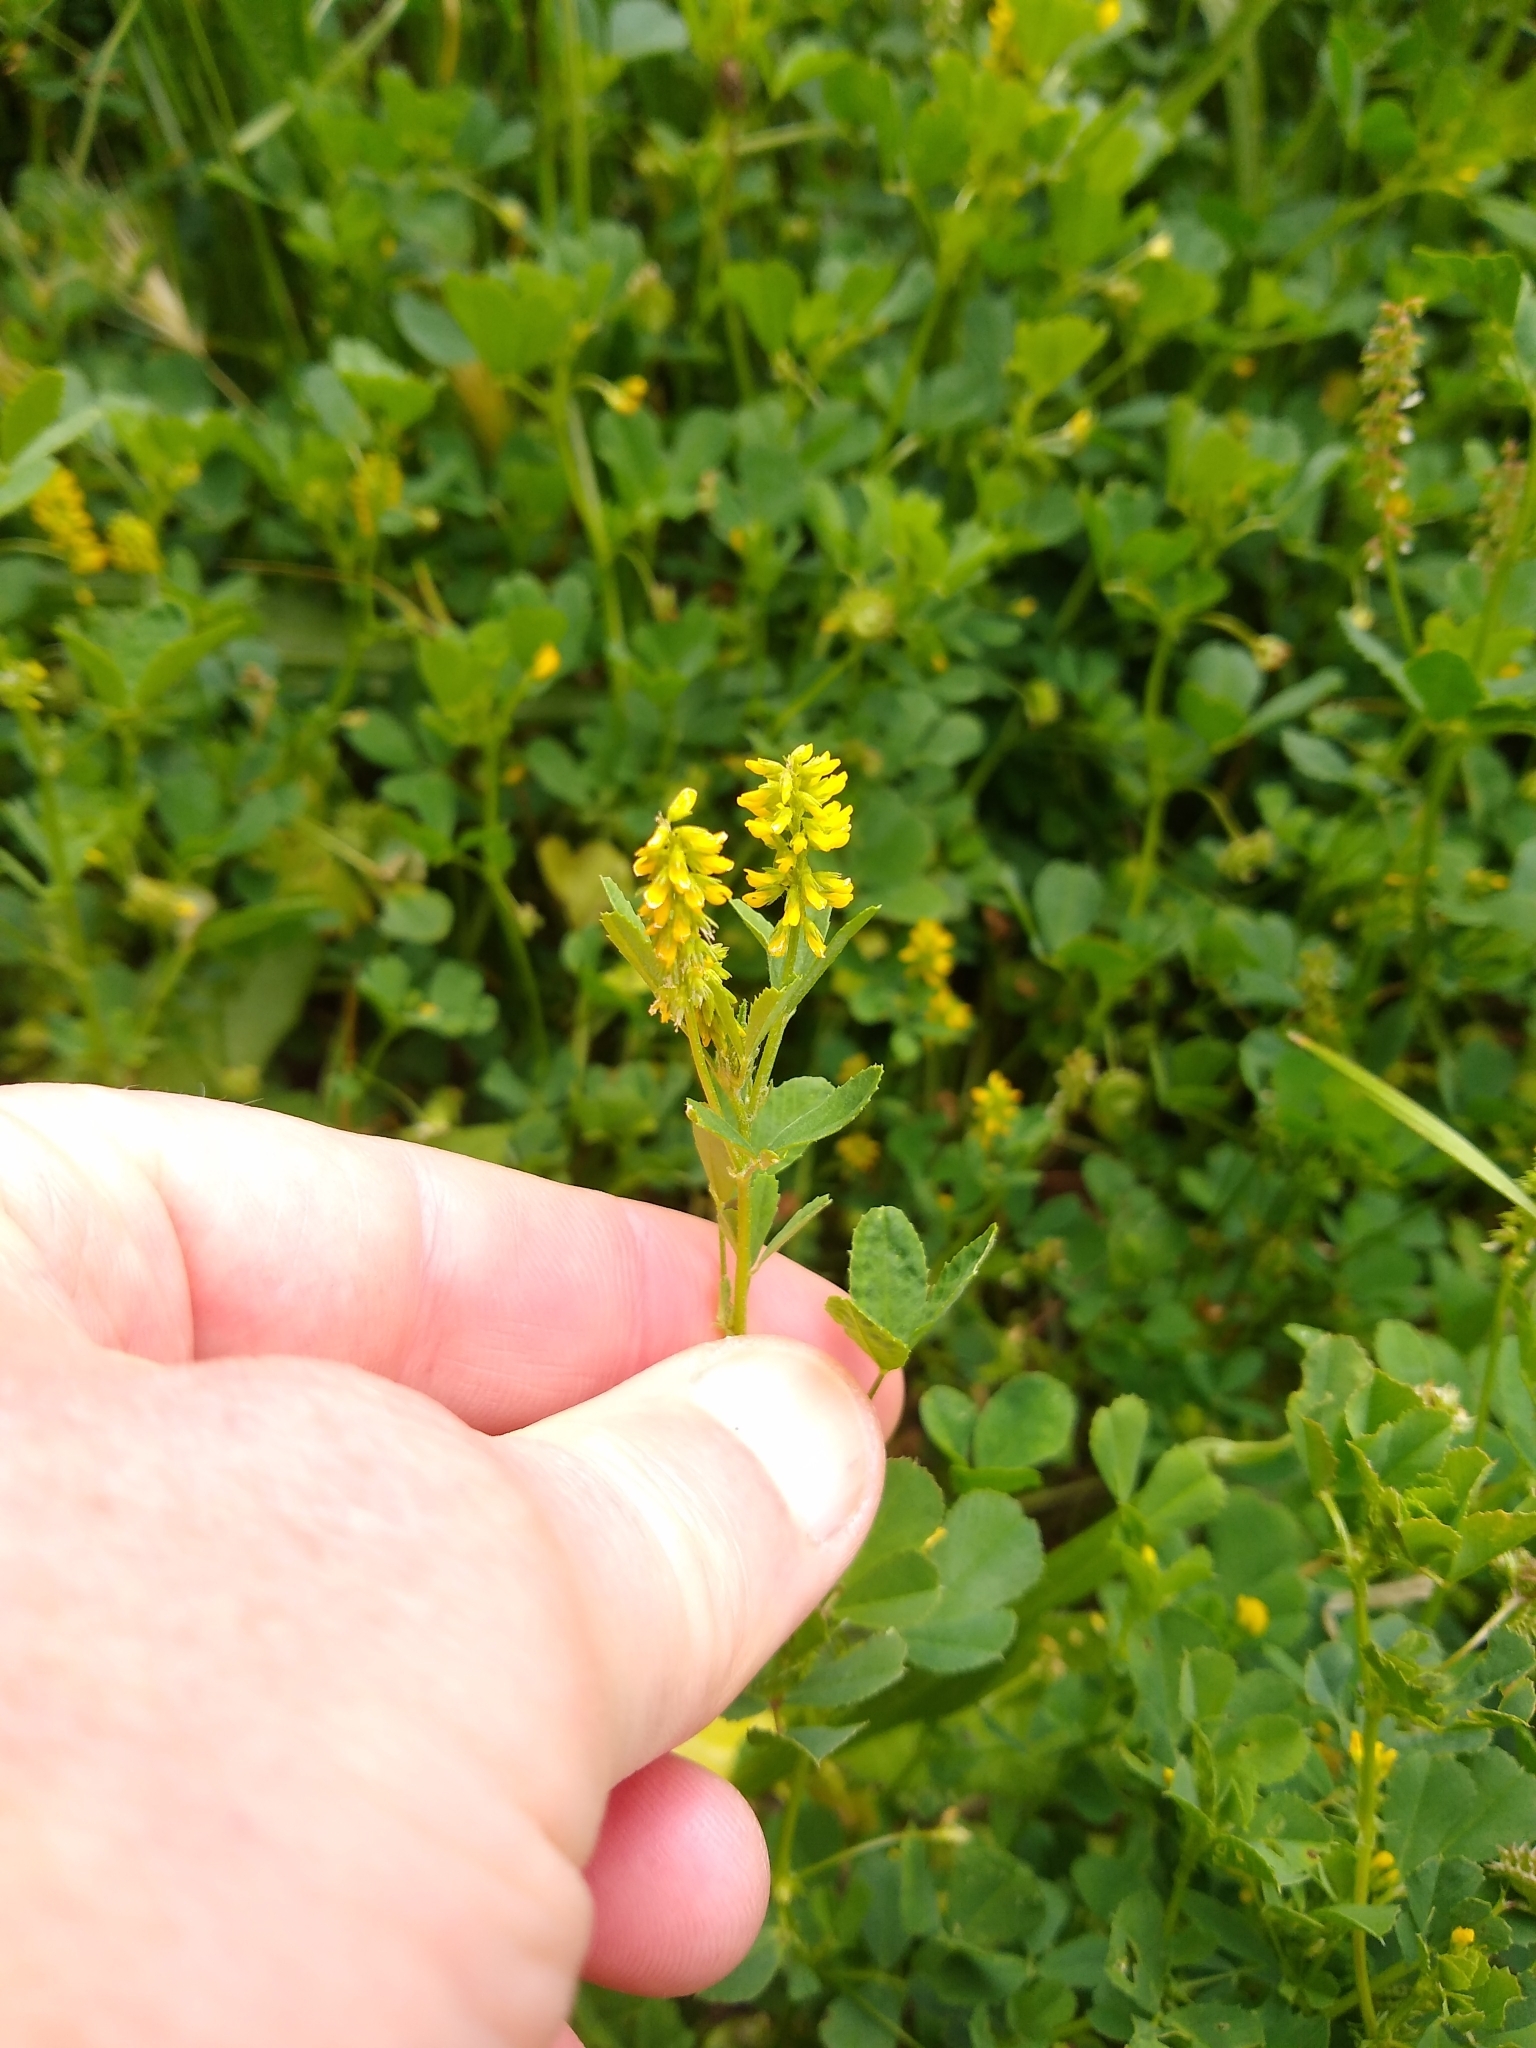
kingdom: Plantae
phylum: Tracheophyta
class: Magnoliopsida
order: Fabales
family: Fabaceae
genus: Melilotus
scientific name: Melilotus indicus
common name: Small melilot
